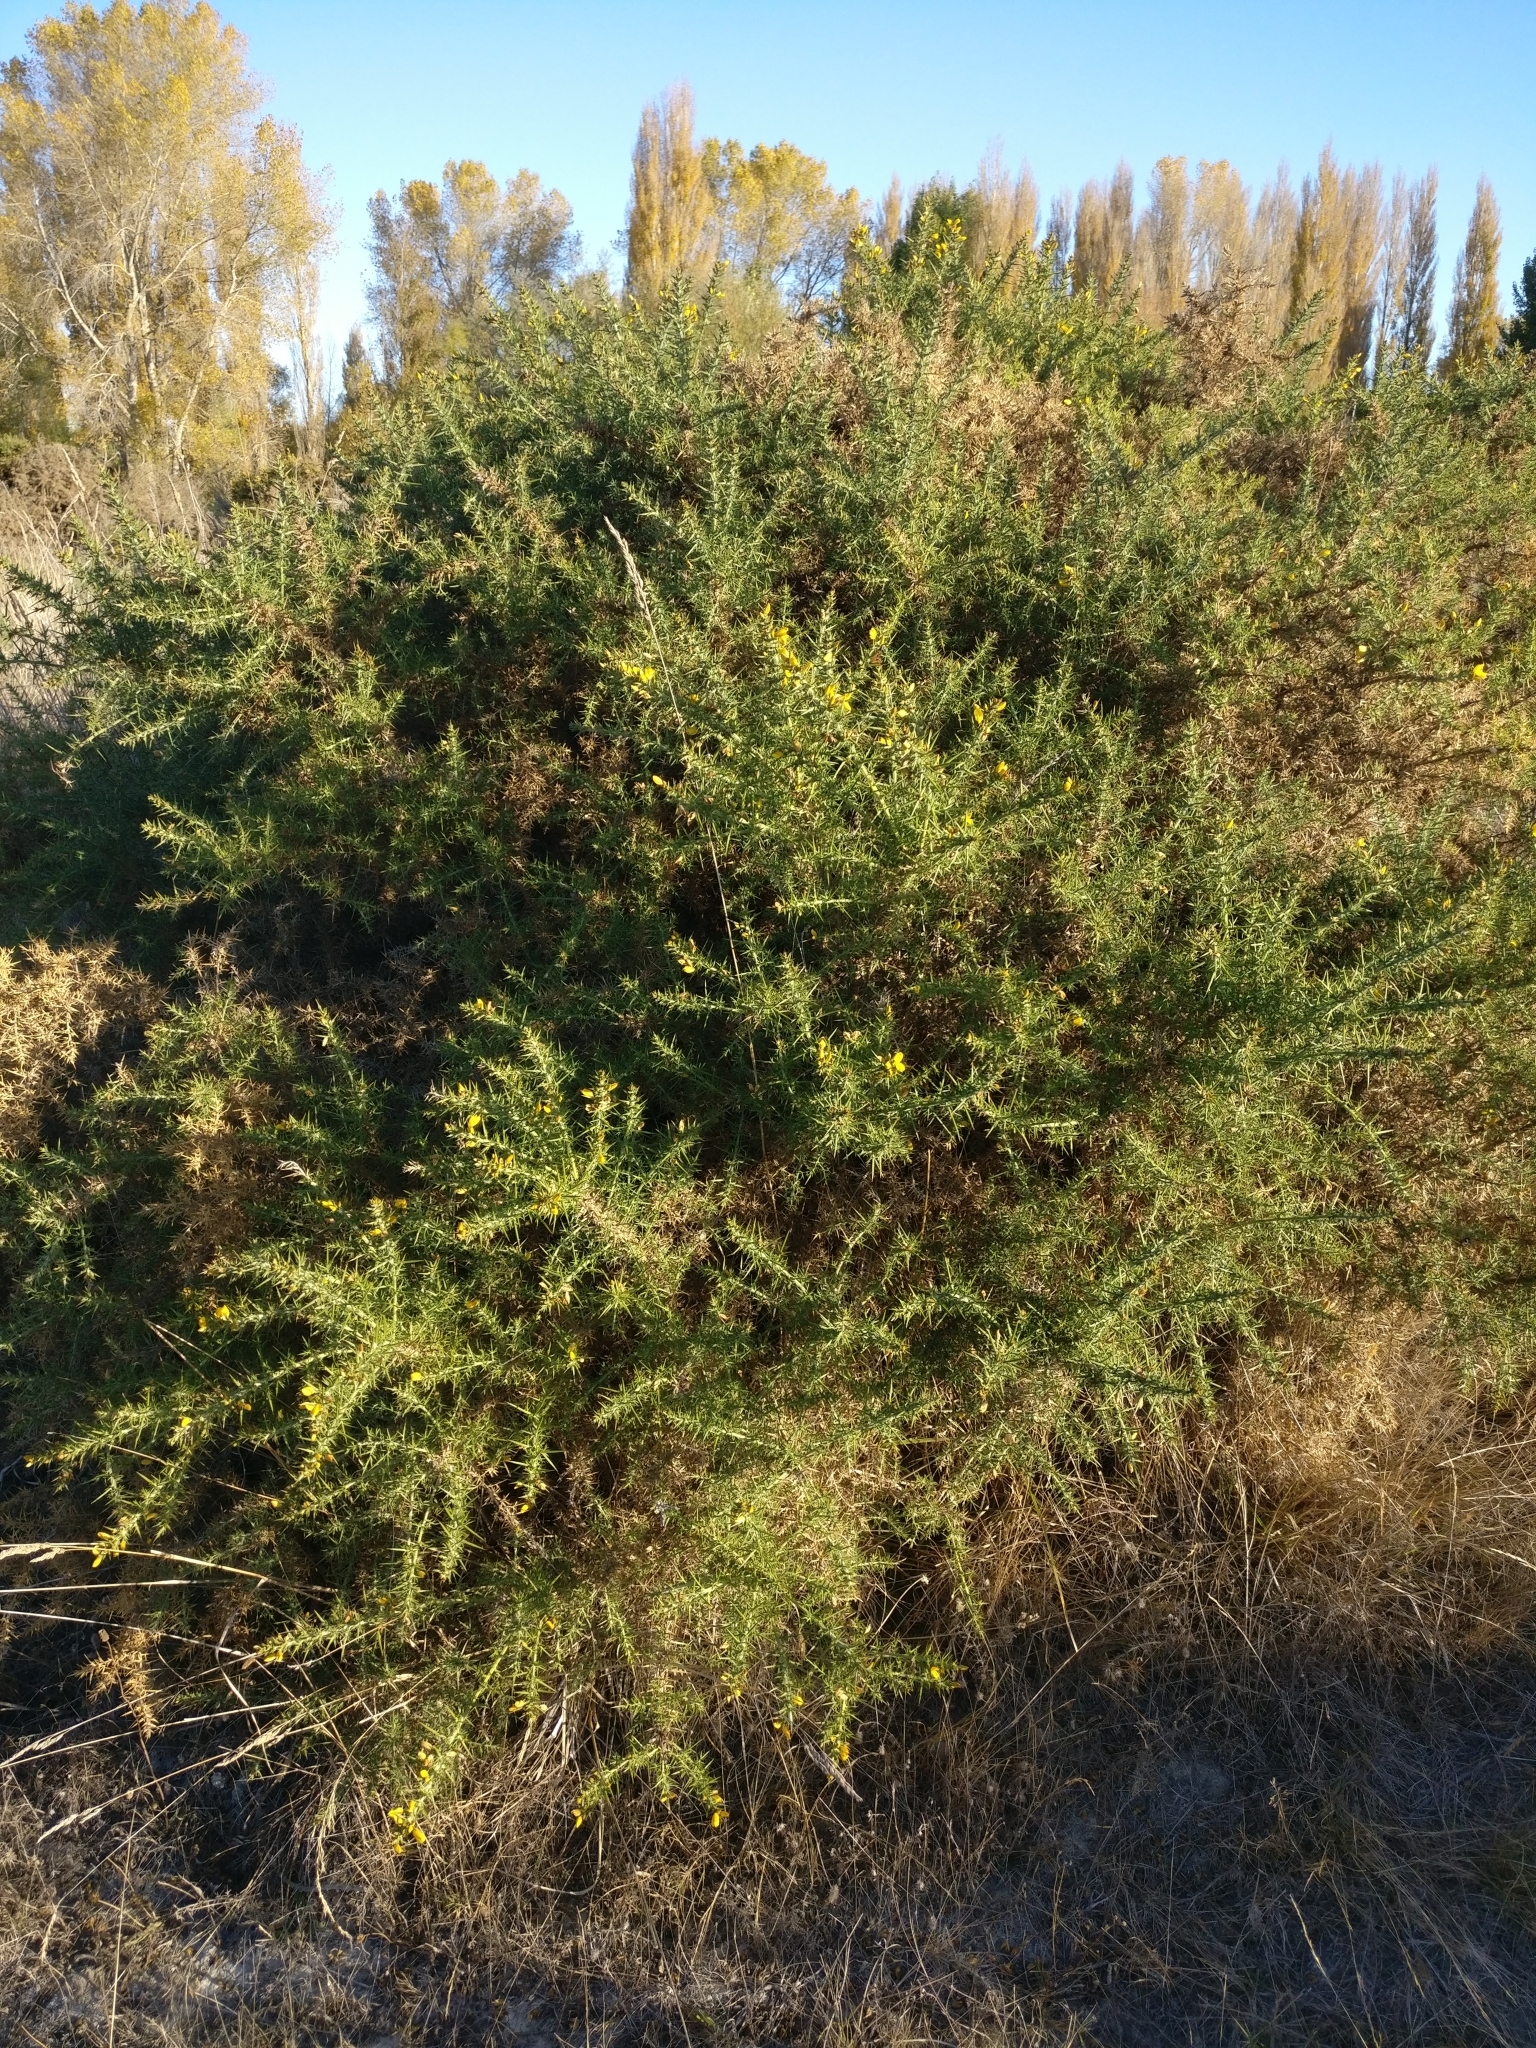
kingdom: Plantae
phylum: Tracheophyta
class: Magnoliopsida
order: Fabales
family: Fabaceae
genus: Ulex
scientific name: Ulex europaeus
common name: Common gorse
